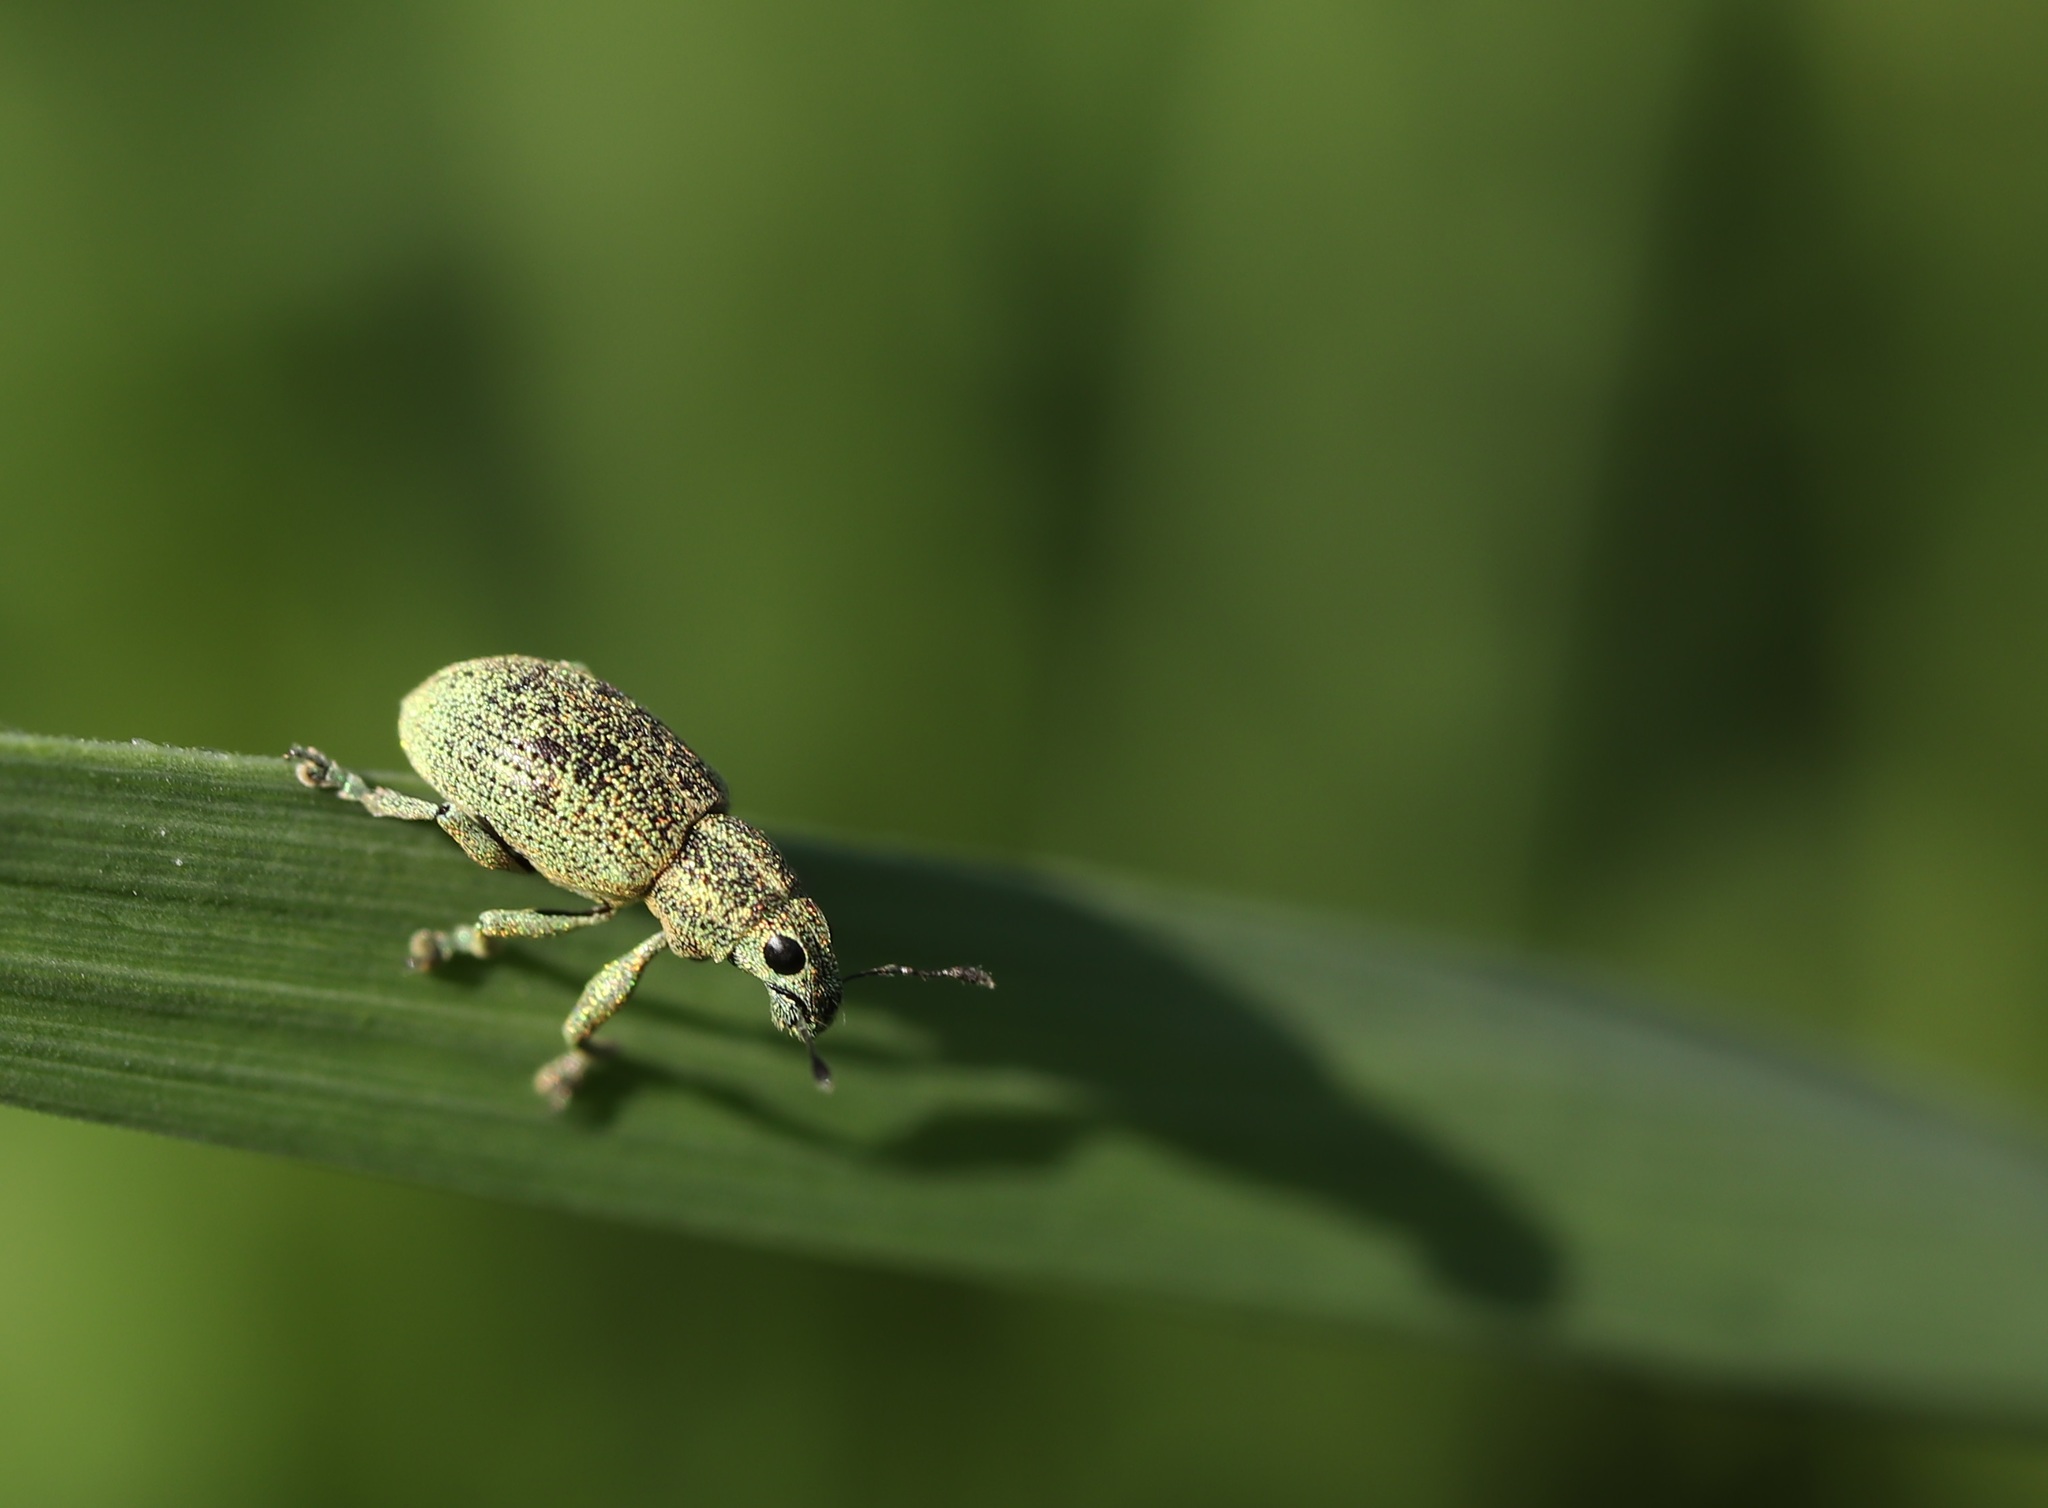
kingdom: Animalia
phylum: Arthropoda
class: Insecta
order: Coleoptera
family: Curculionidae
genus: Eugnathus
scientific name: Eugnathus distinctus
